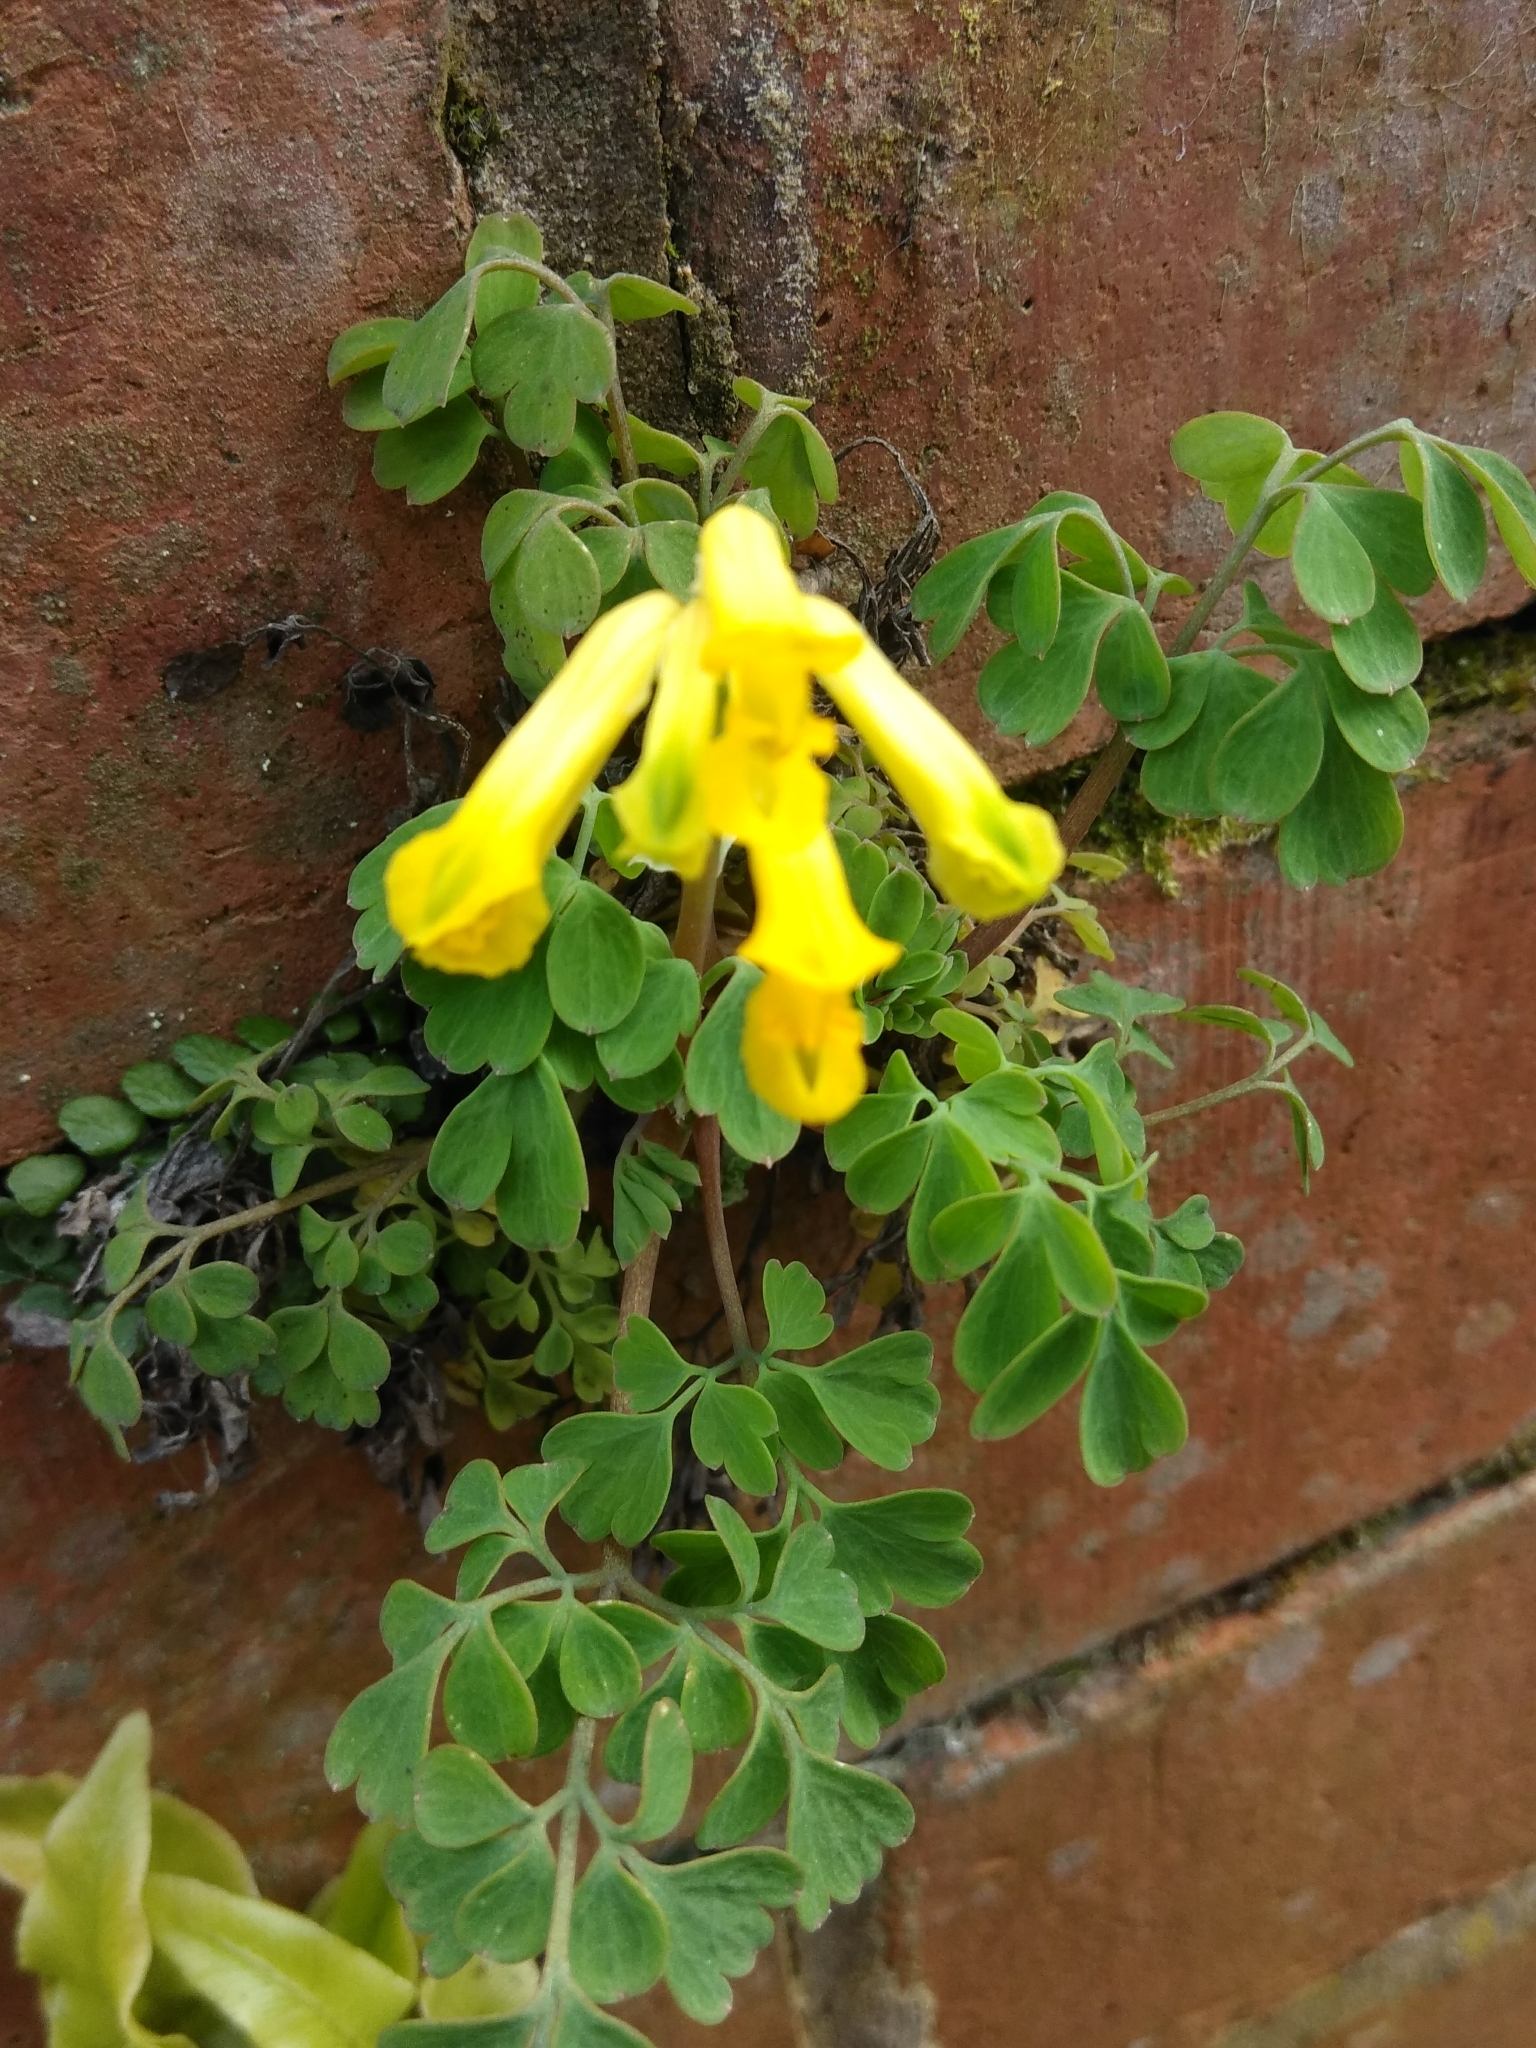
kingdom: Plantae
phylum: Tracheophyta
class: Magnoliopsida
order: Ranunculales
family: Papaveraceae
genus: Pseudofumaria
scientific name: Pseudofumaria lutea
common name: Yellow corydalis
